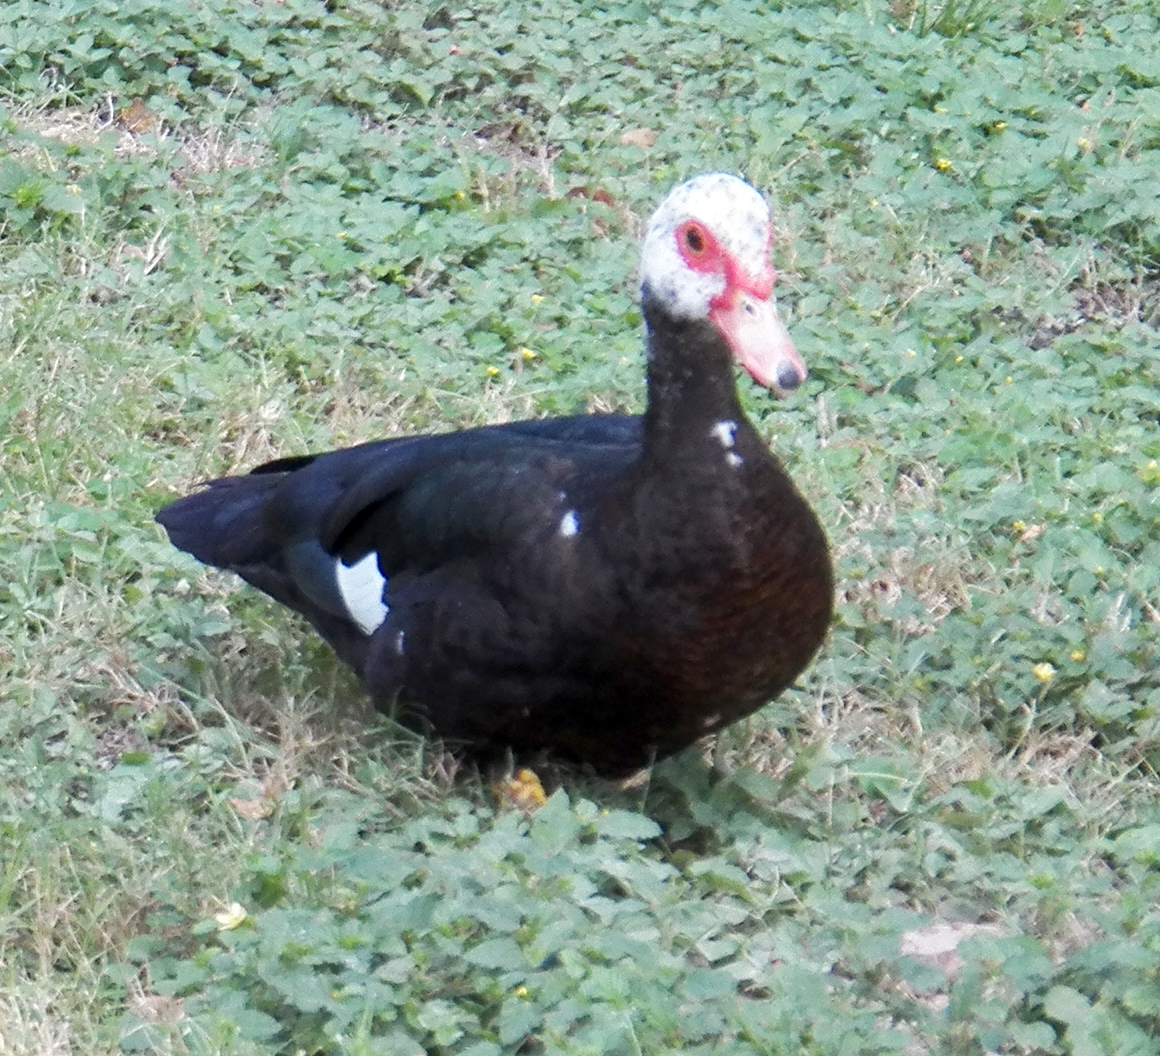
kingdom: Animalia
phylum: Chordata
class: Aves
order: Anseriformes
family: Anatidae
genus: Cairina
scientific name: Cairina moschata
